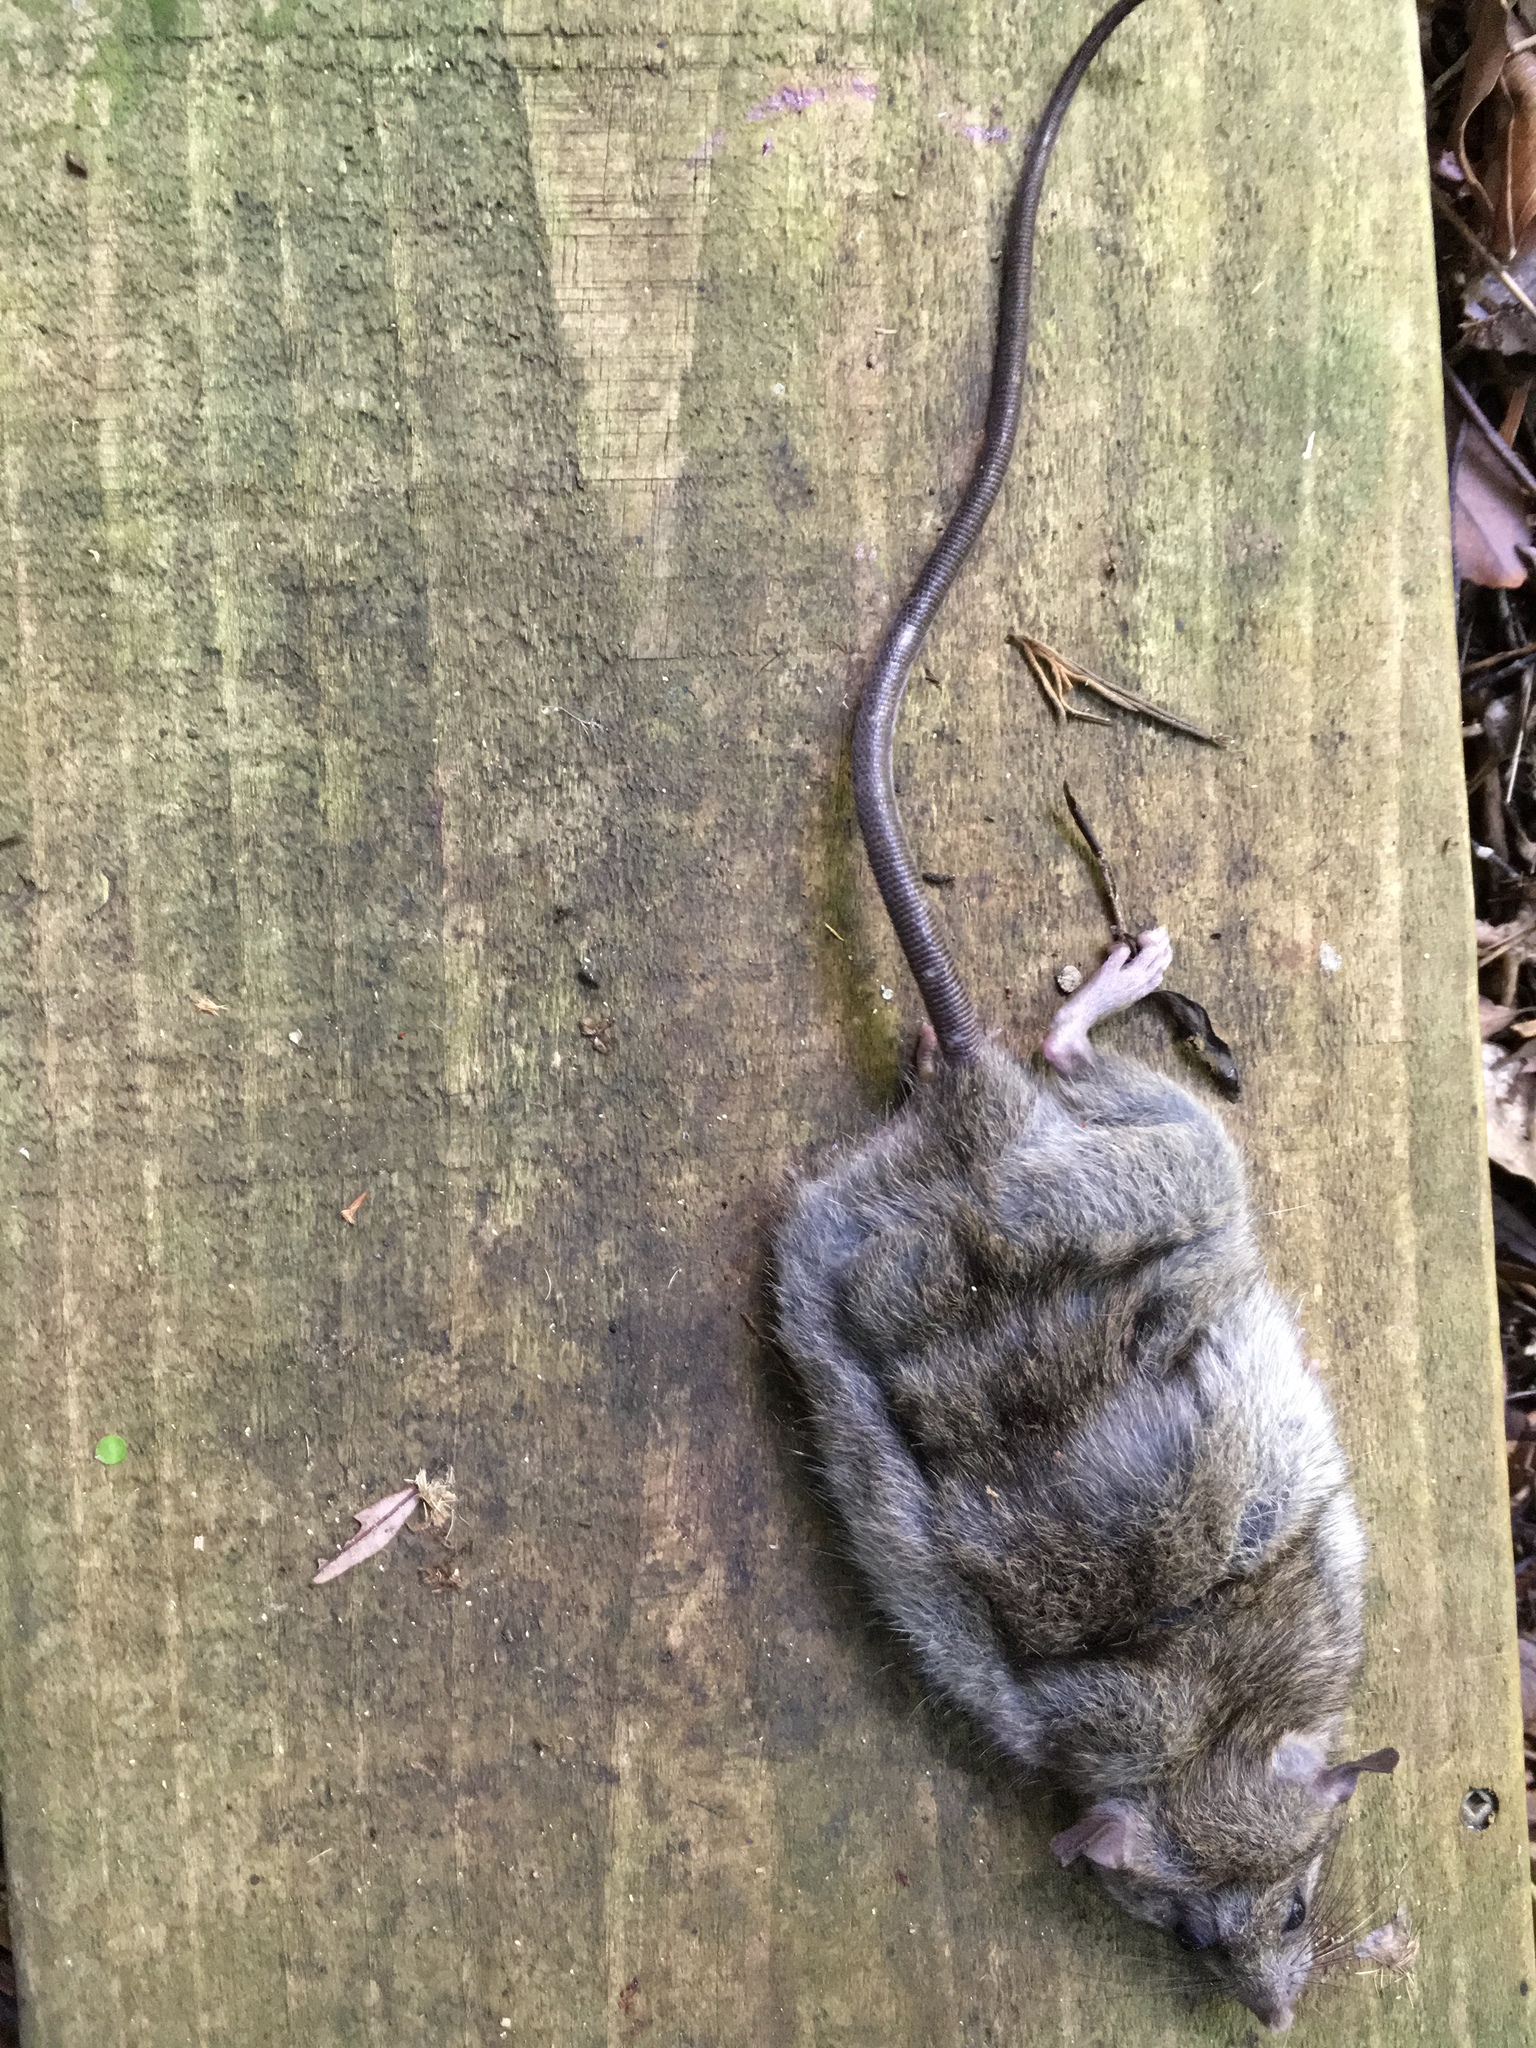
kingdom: Animalia
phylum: Chordata
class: Mammalia
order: Rodentia
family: Muridae
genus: Rattus
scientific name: Rattus rattus
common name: Black rat
